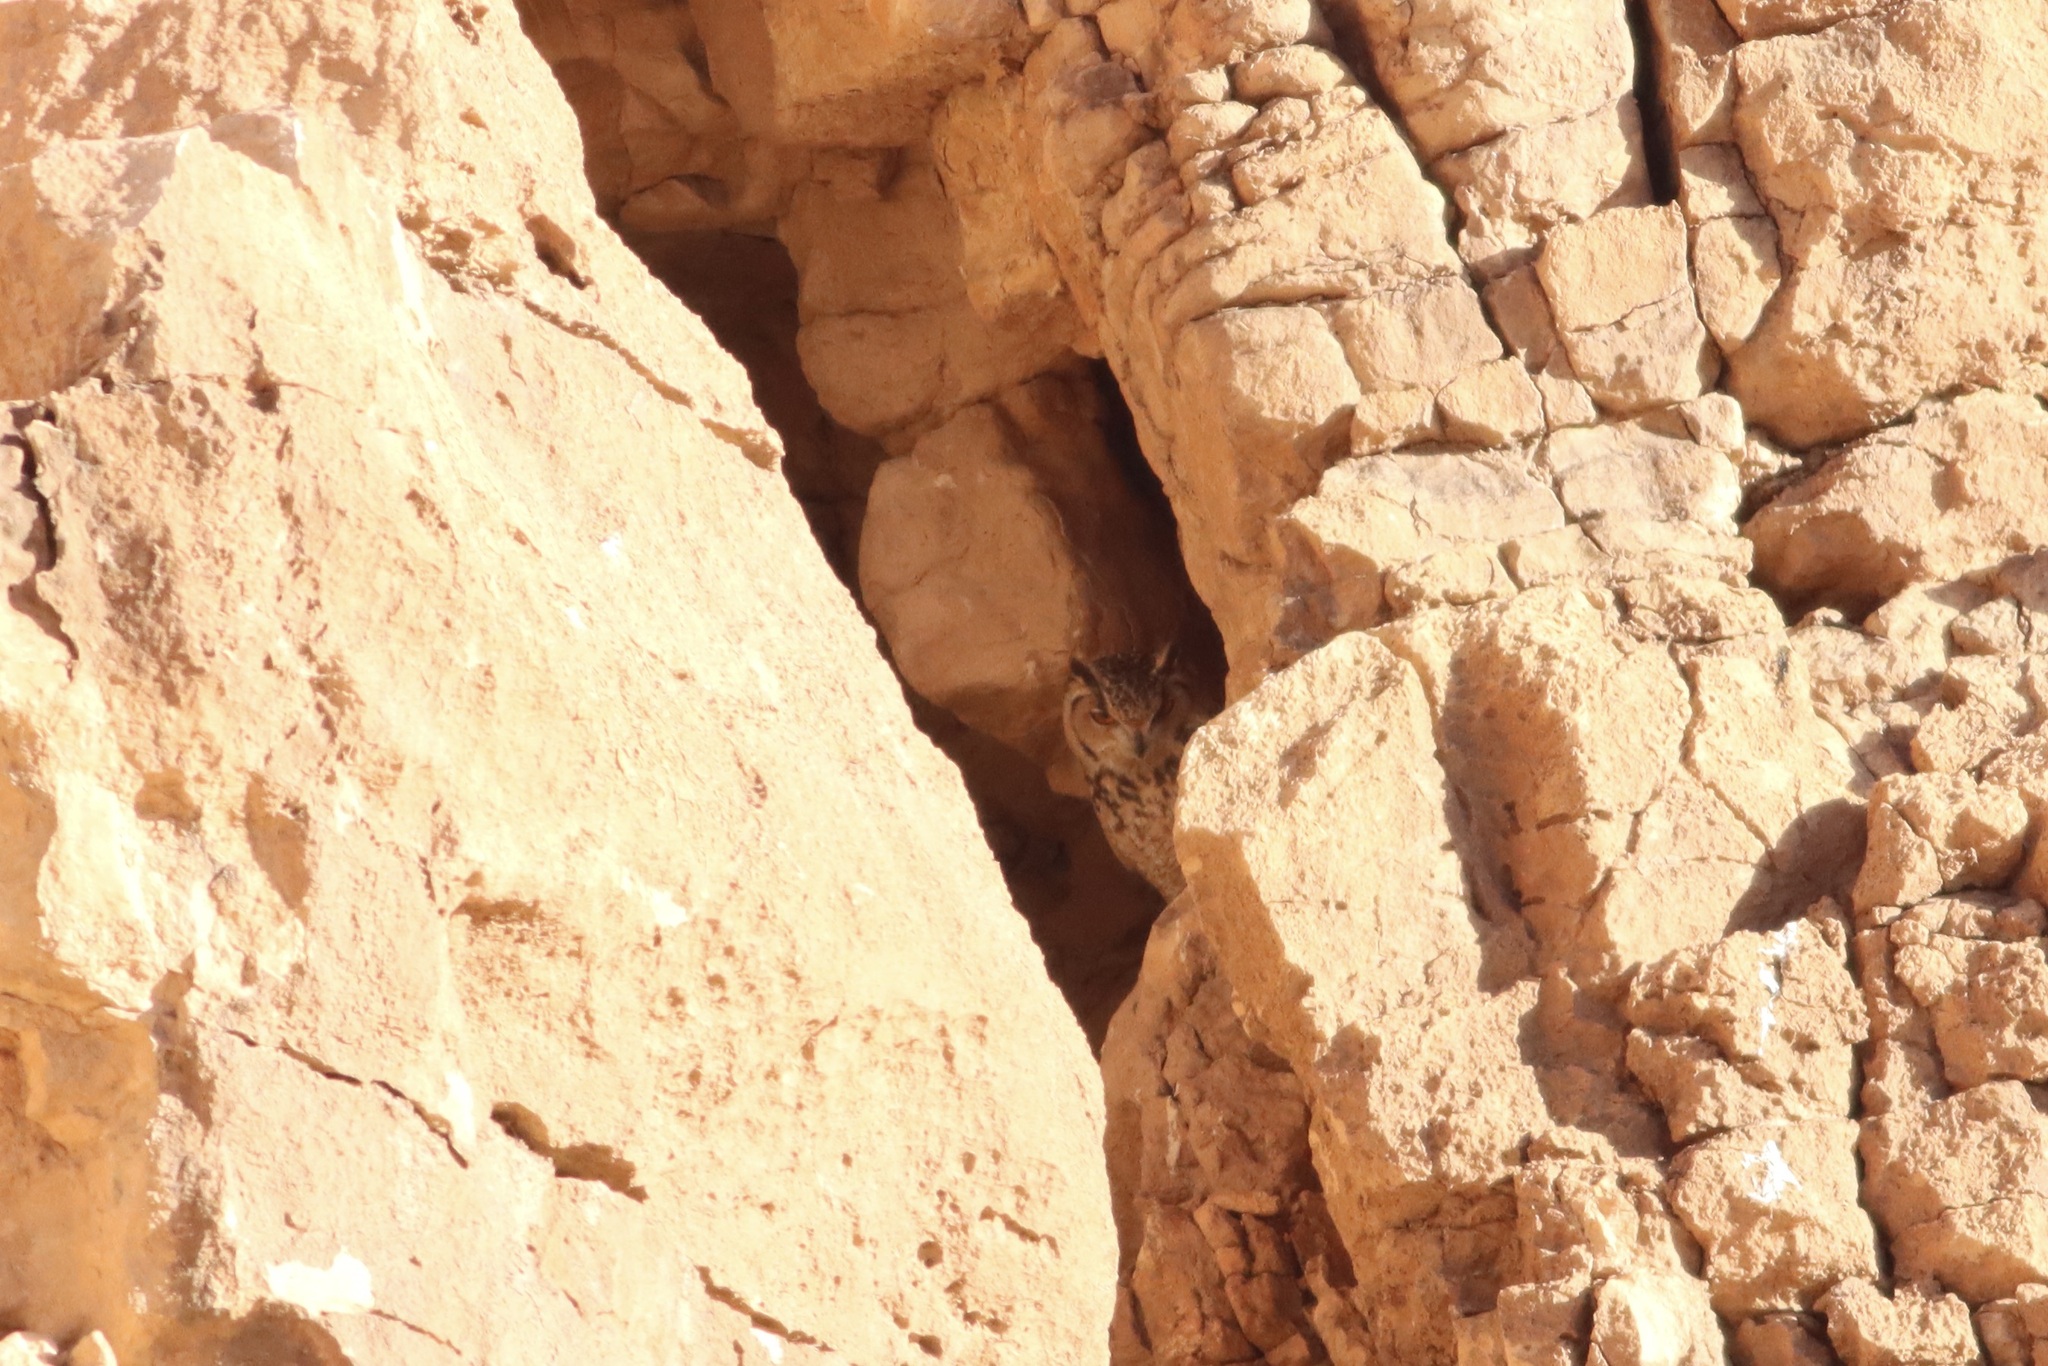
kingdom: Animalia
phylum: Chordata
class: Aves
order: Strigiformes
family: Strigidae
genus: Bubo
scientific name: Bubo ascalaphus
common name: Pharaoh eagle-owl
